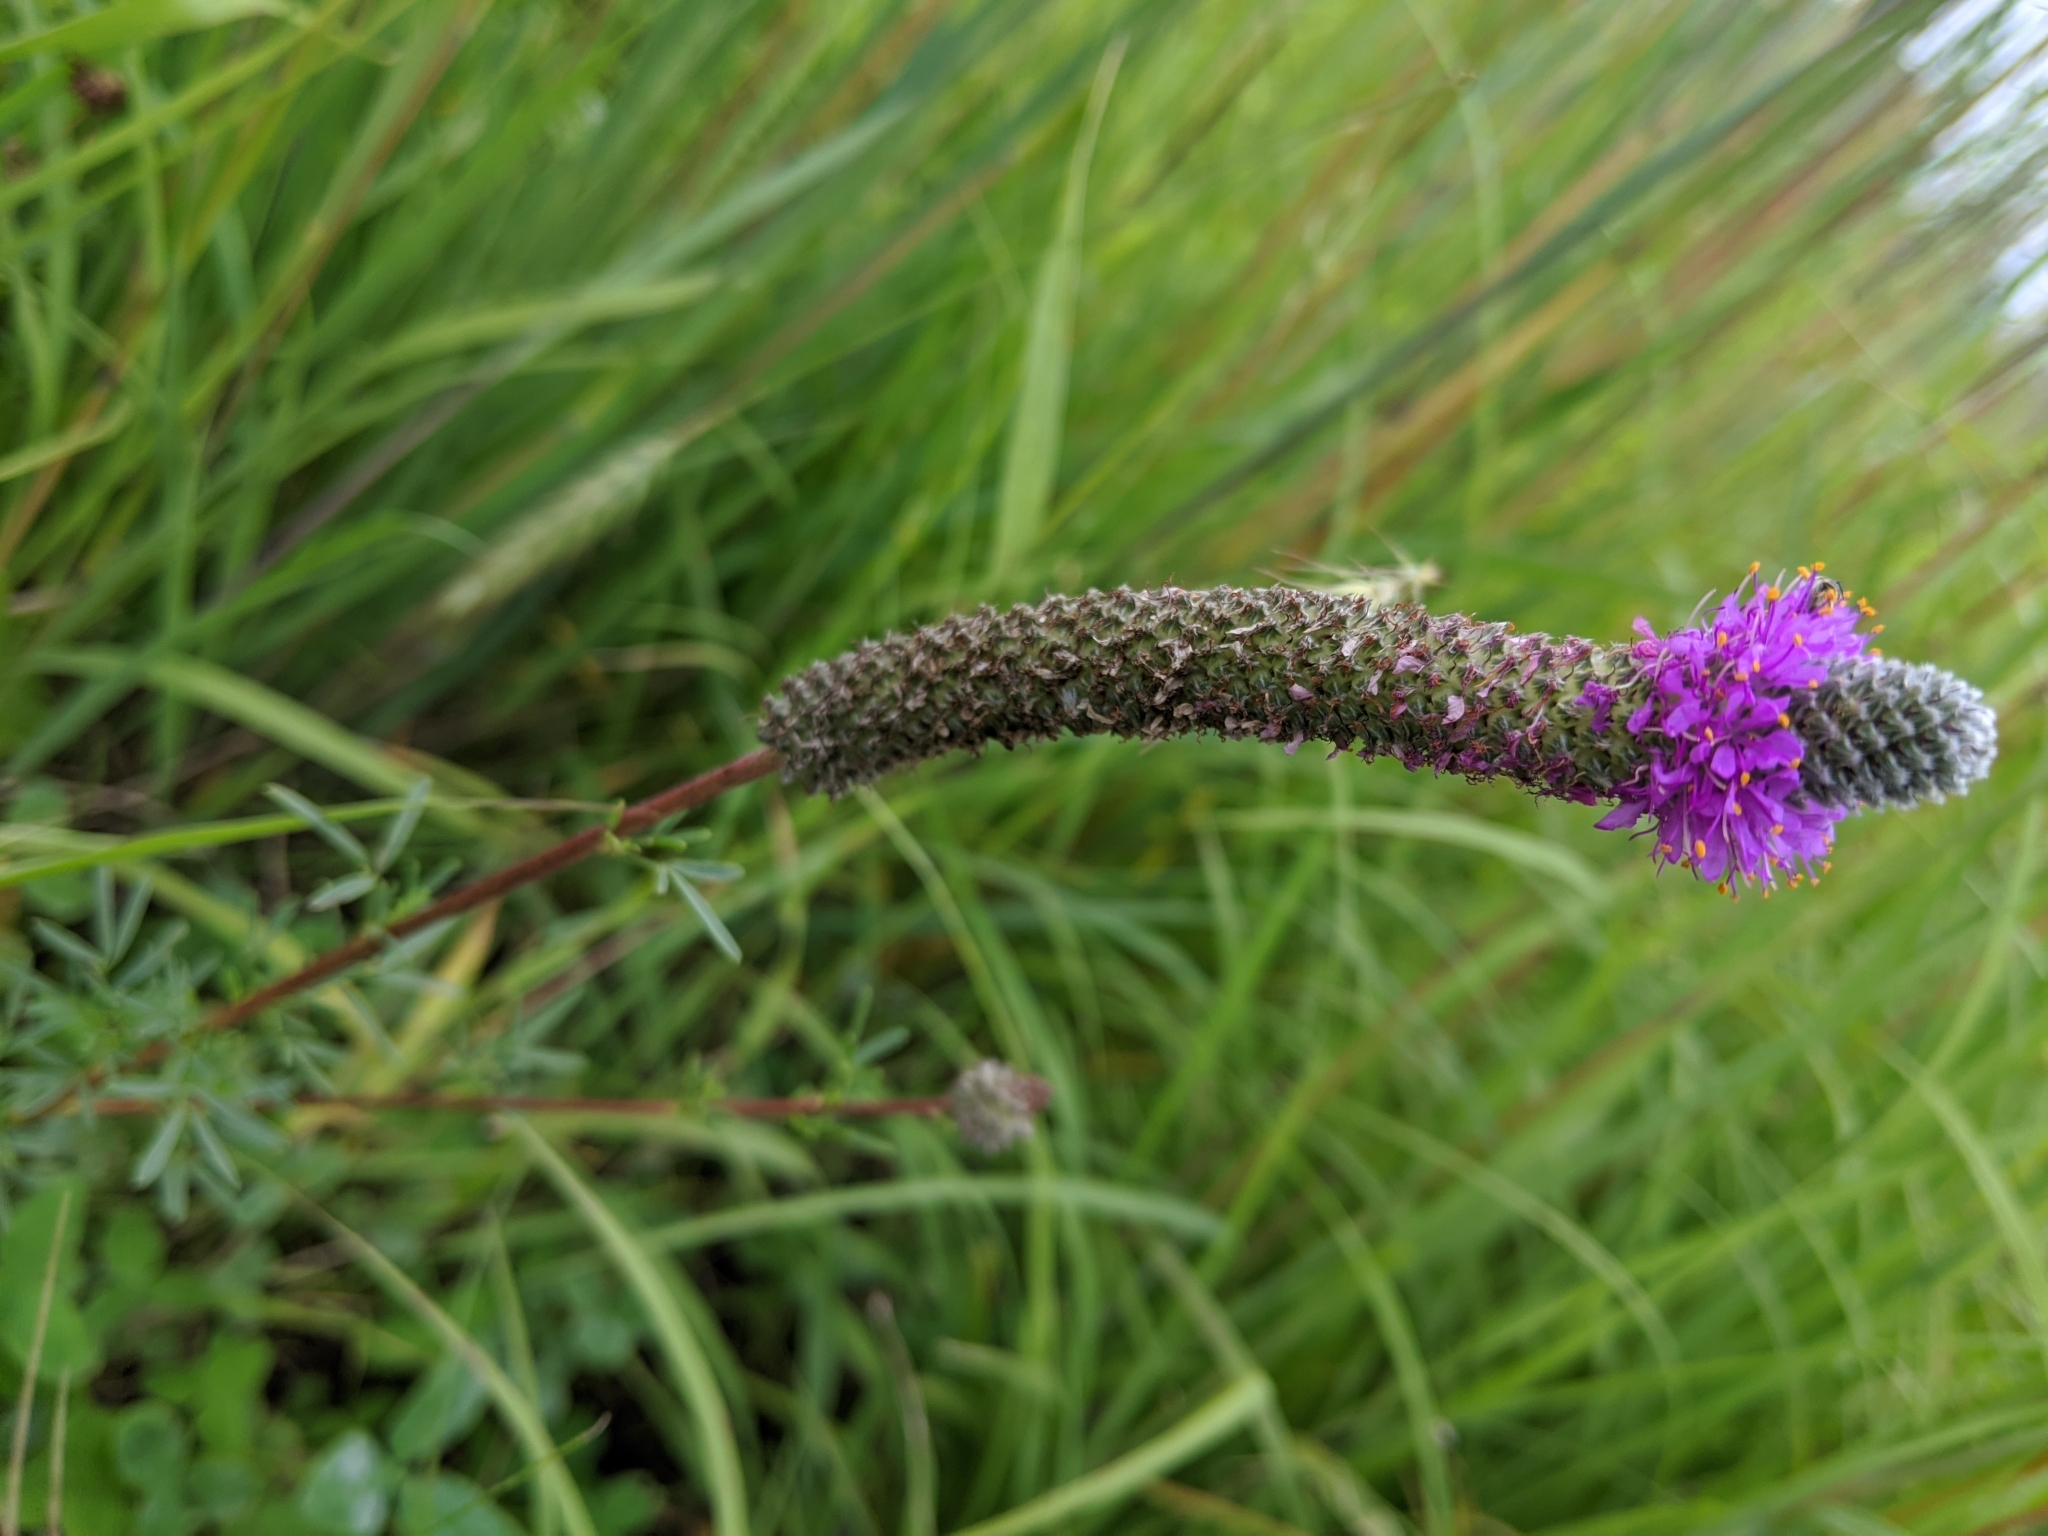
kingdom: Plantae
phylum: Tracheophyta
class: Magnoliopsida
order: Fabales
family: Fabaceae
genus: Dalea
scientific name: Dalea purpurea
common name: Purple prairie-clover
